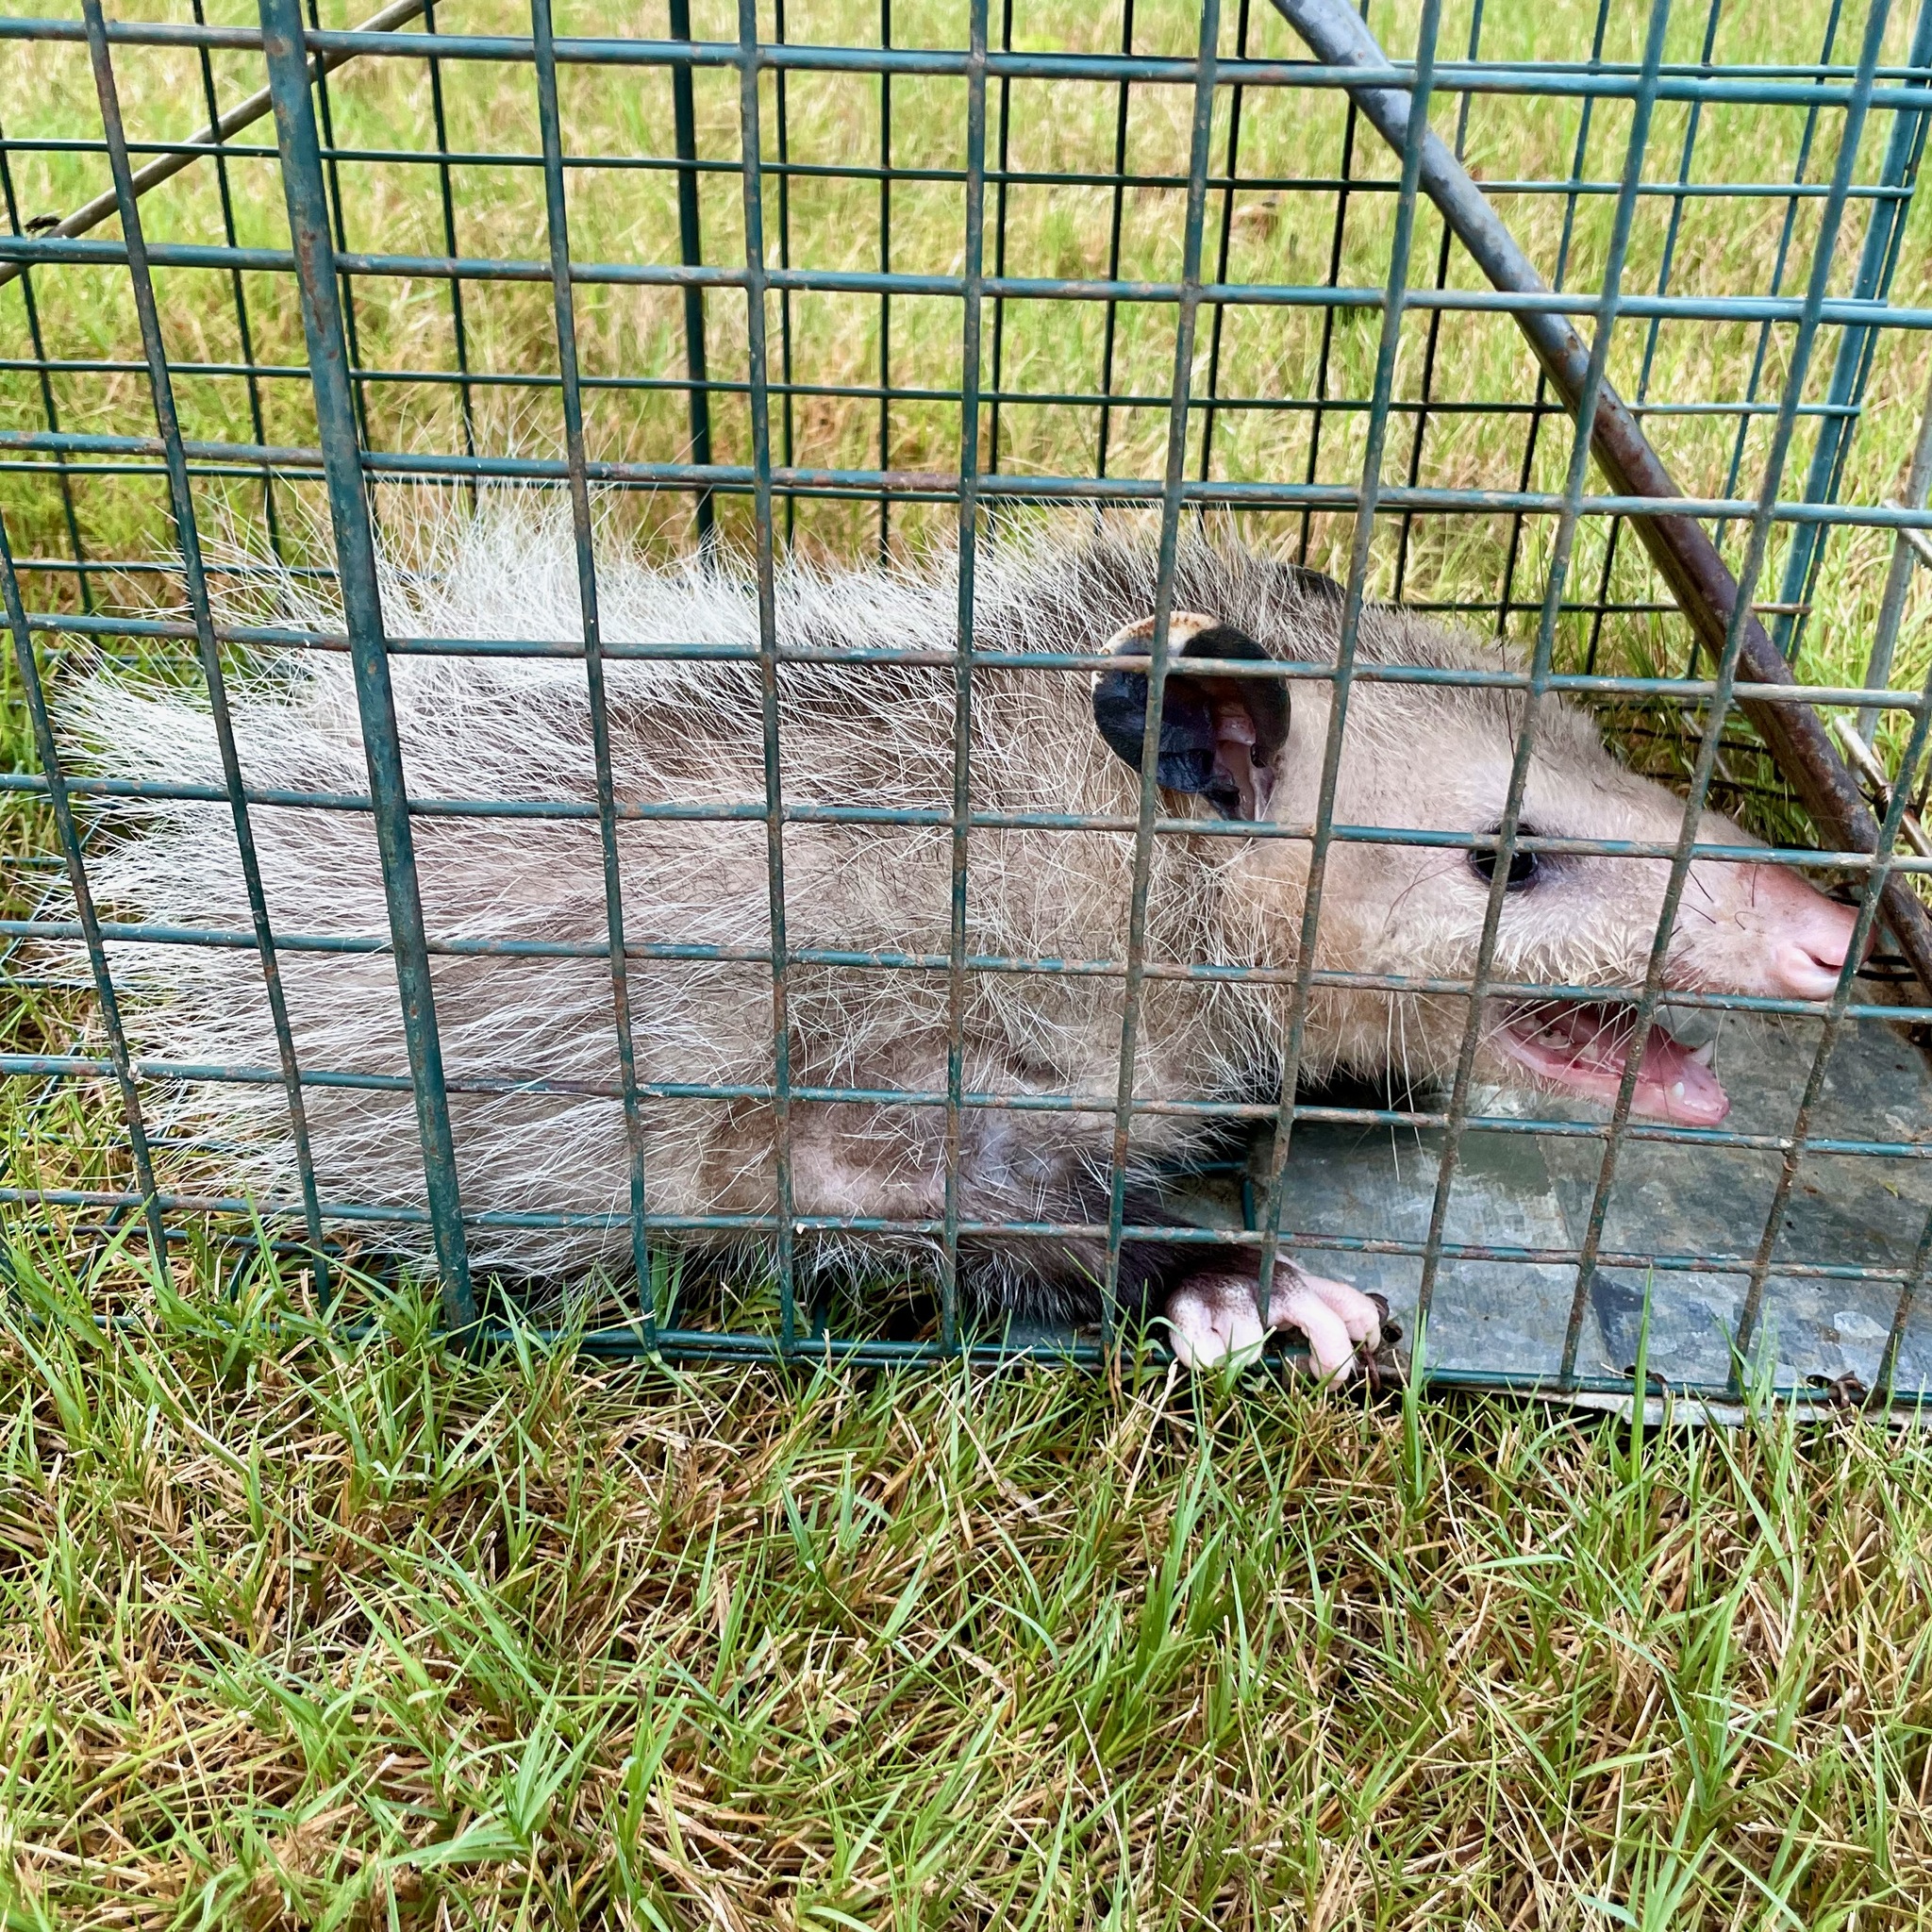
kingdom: Animalia
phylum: Chordata
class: Mammalia
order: Didelphimorphia
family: Didelphidae
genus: Didelphis
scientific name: Didelphis virginiana
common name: Virginia opossum
